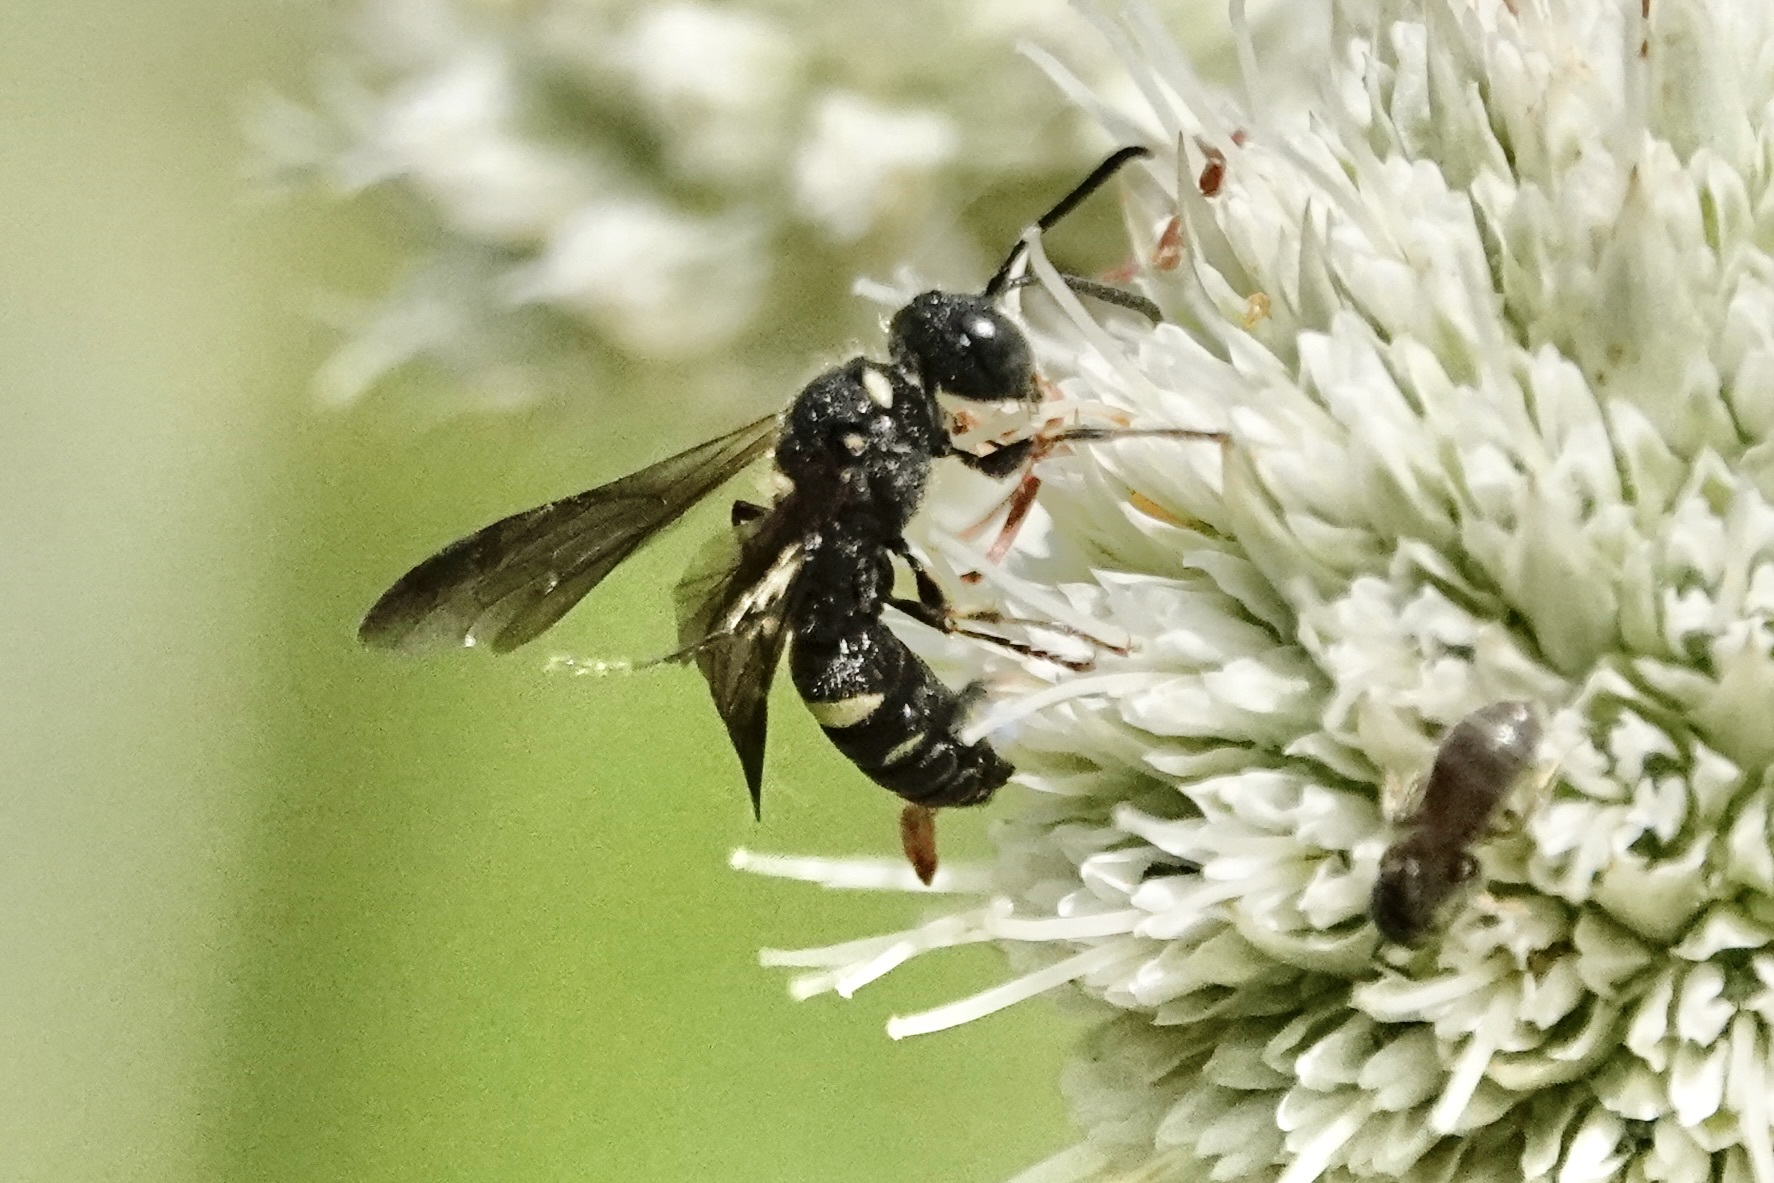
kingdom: Animalia
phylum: Arthropoda
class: Insecta
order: Hymenoptera
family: Crabronidae
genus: Cerceris
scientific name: Cerceris fumipennis
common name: Smokey-winged beetle bandit wasp
